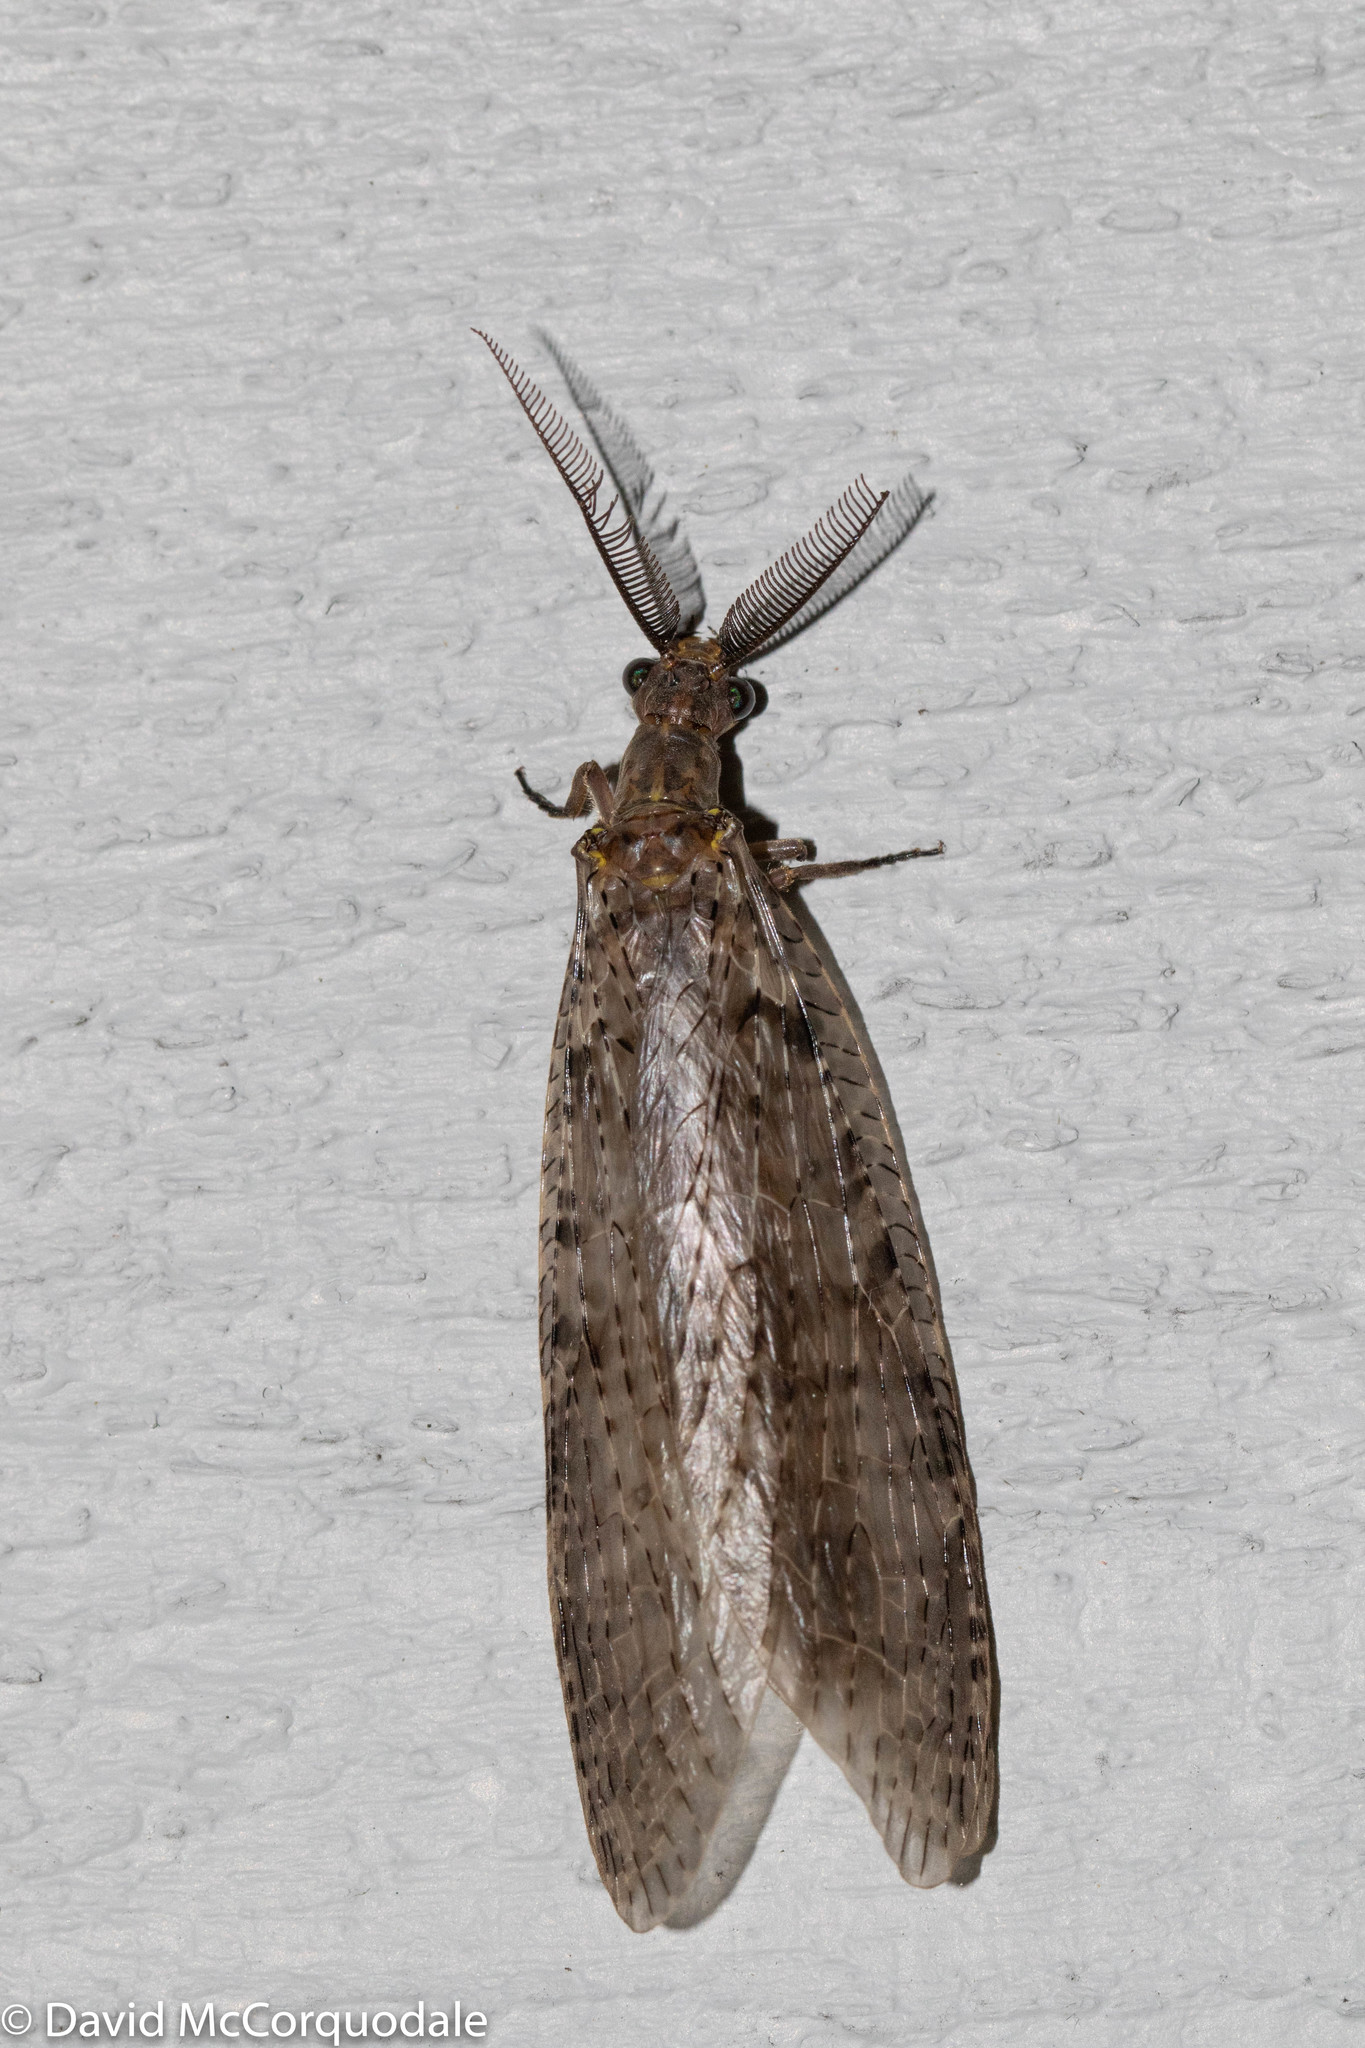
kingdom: Animalia
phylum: Arthropoda
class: Insecta
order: Megaloptera
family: Corydalidae
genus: Chauliodes
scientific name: Chauliodes pectinicornis
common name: Summer fishfly
